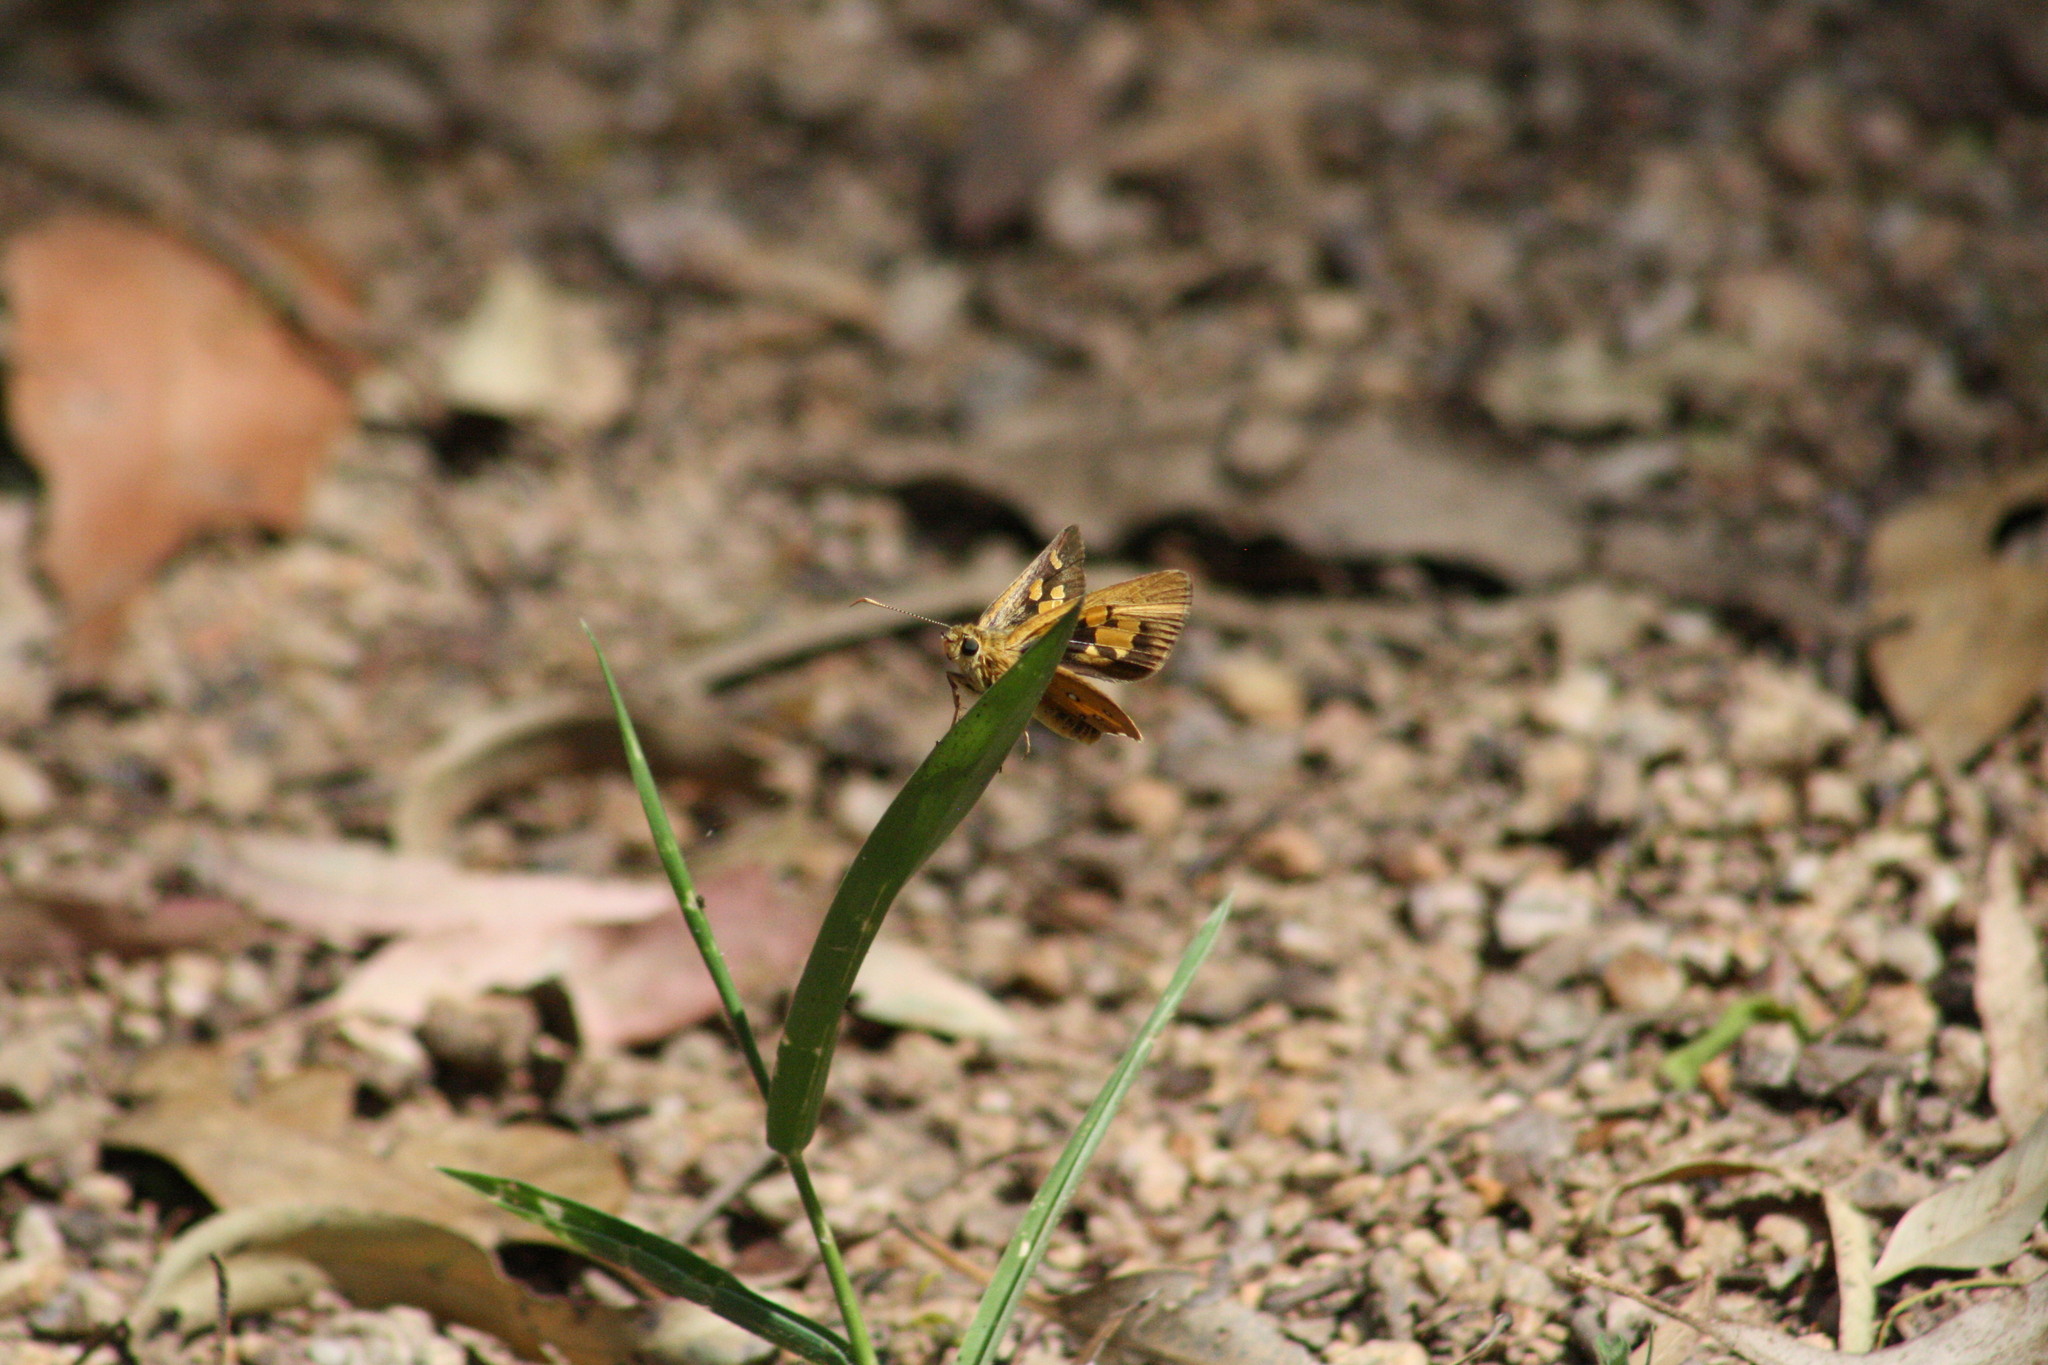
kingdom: Animalia
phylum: Arthropoda
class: Insecta
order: Lepidoptera
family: Hesperiidae
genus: Trapezites
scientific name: Trapezites eliena
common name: Eliena skipper
